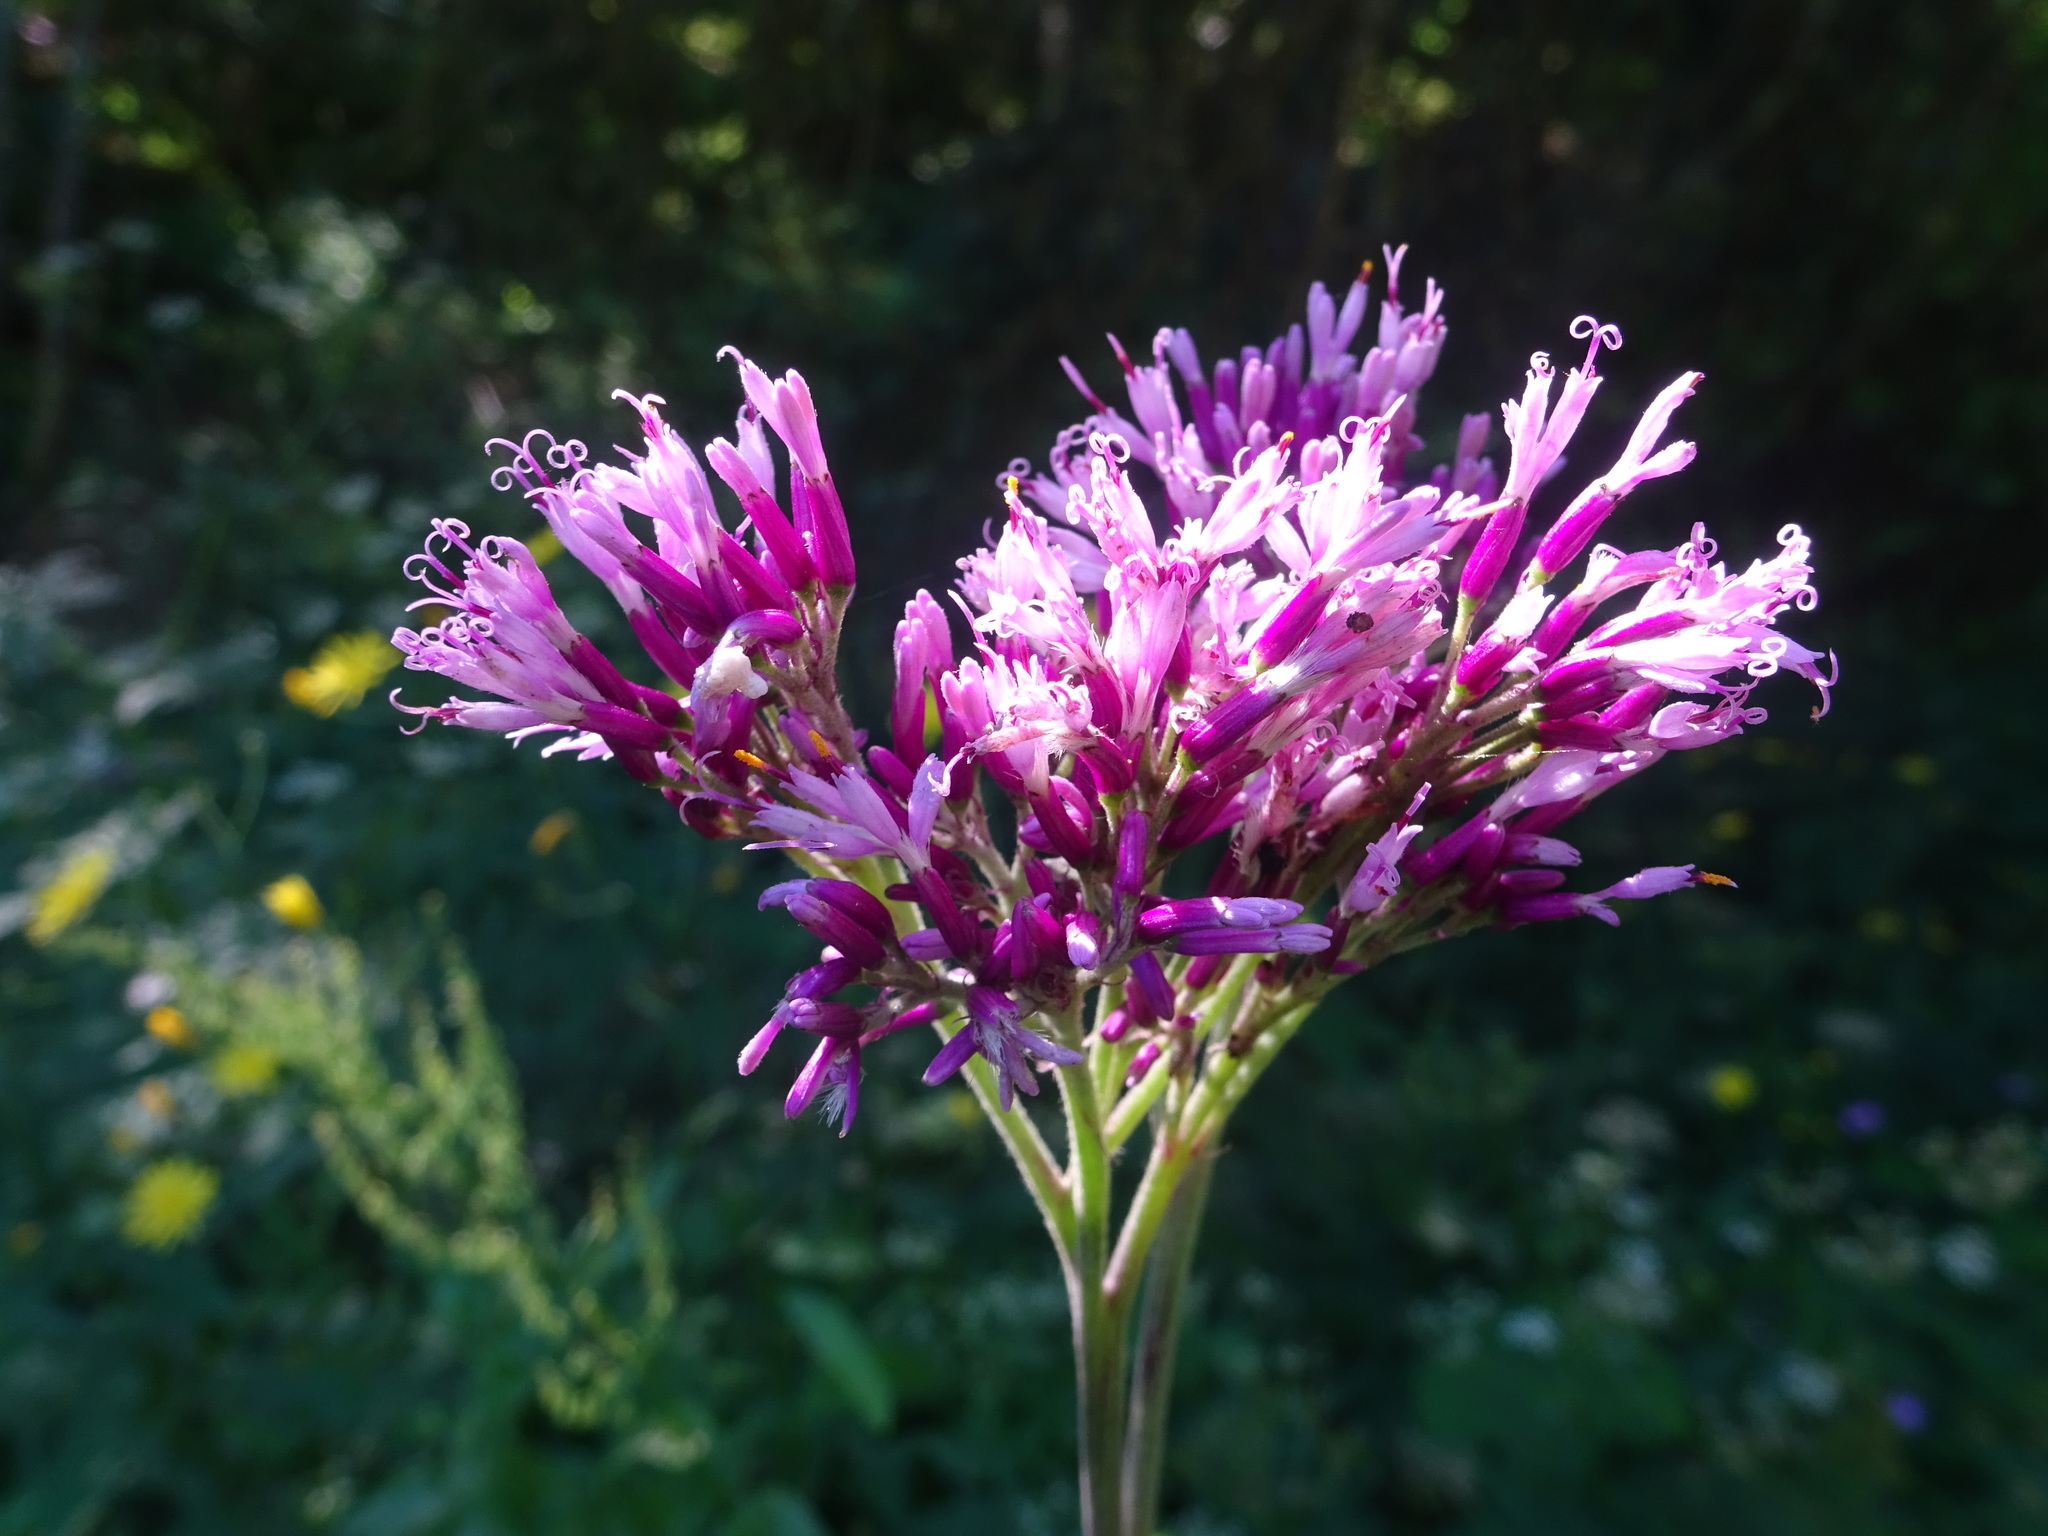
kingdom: Plantae
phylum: Tracheophyta
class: Magnoliopsida
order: Asterales
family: Asteraceae
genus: Adenostyles
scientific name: Adenostyles alliariae
